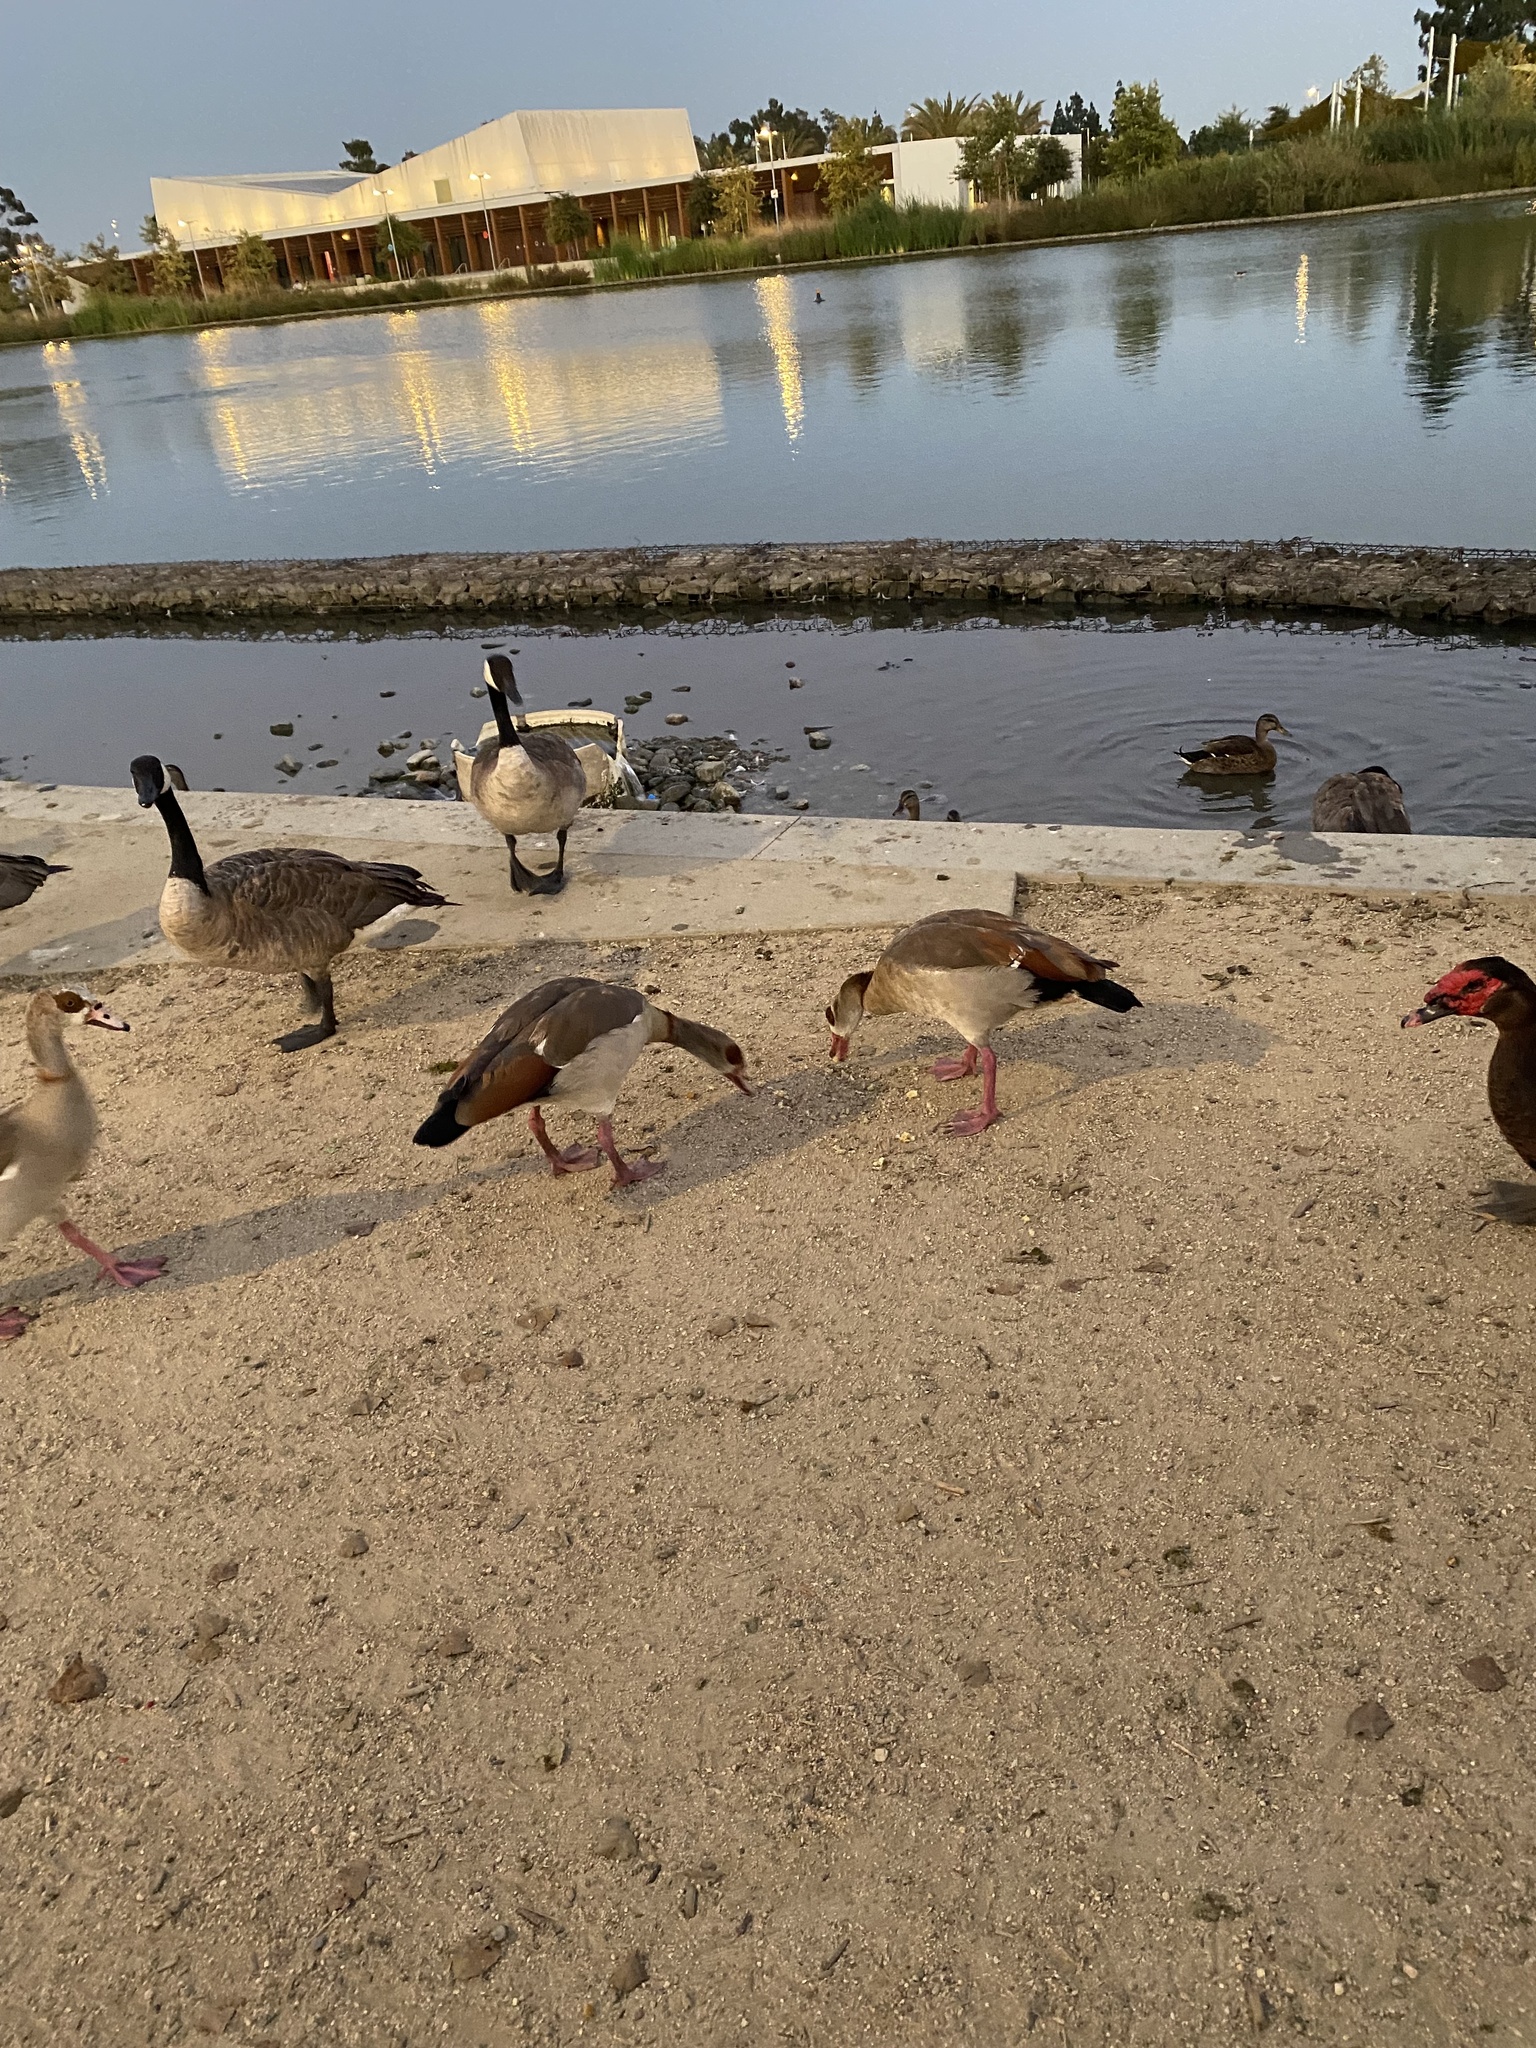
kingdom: Animalia
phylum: Chordata
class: Aves
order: Anseriformes
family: Anatidae
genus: Alopochen
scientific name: Alopochen aegyptiaca
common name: Egyptian goose
